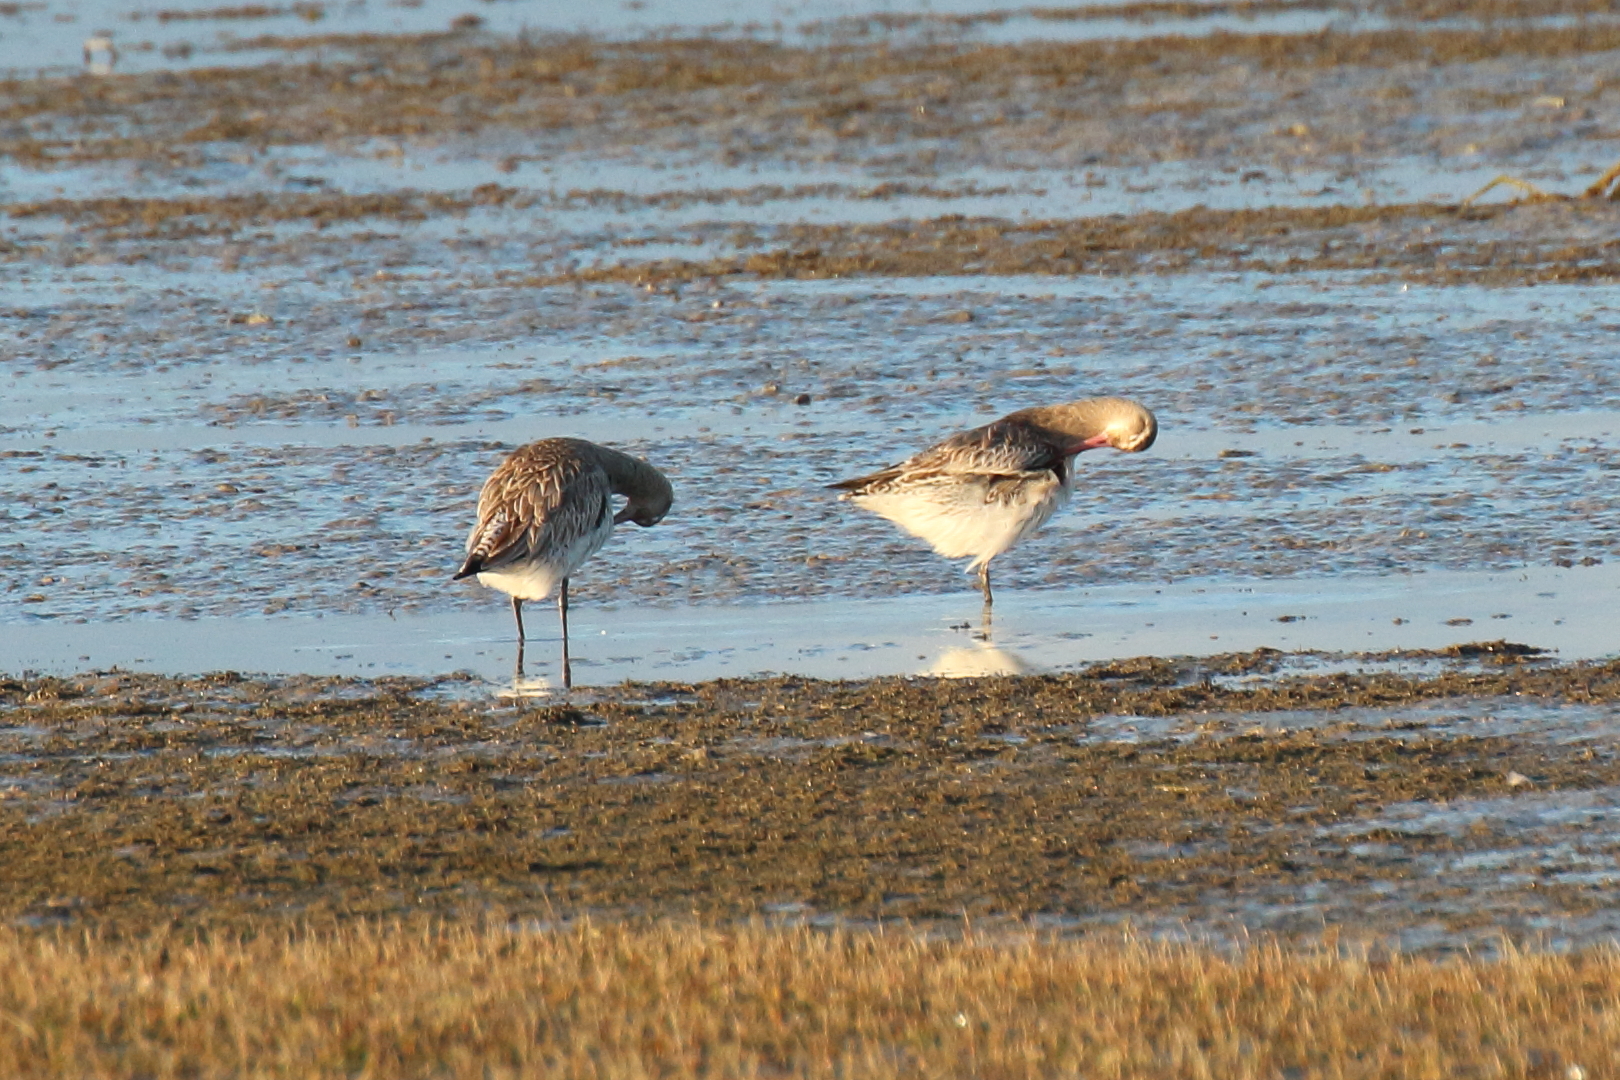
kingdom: Animalia
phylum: Chordata
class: Aves
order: Charadriiformes
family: Scolopacidae
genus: Limosa
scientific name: Limosa lapponica
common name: Bar-tailed godwit
